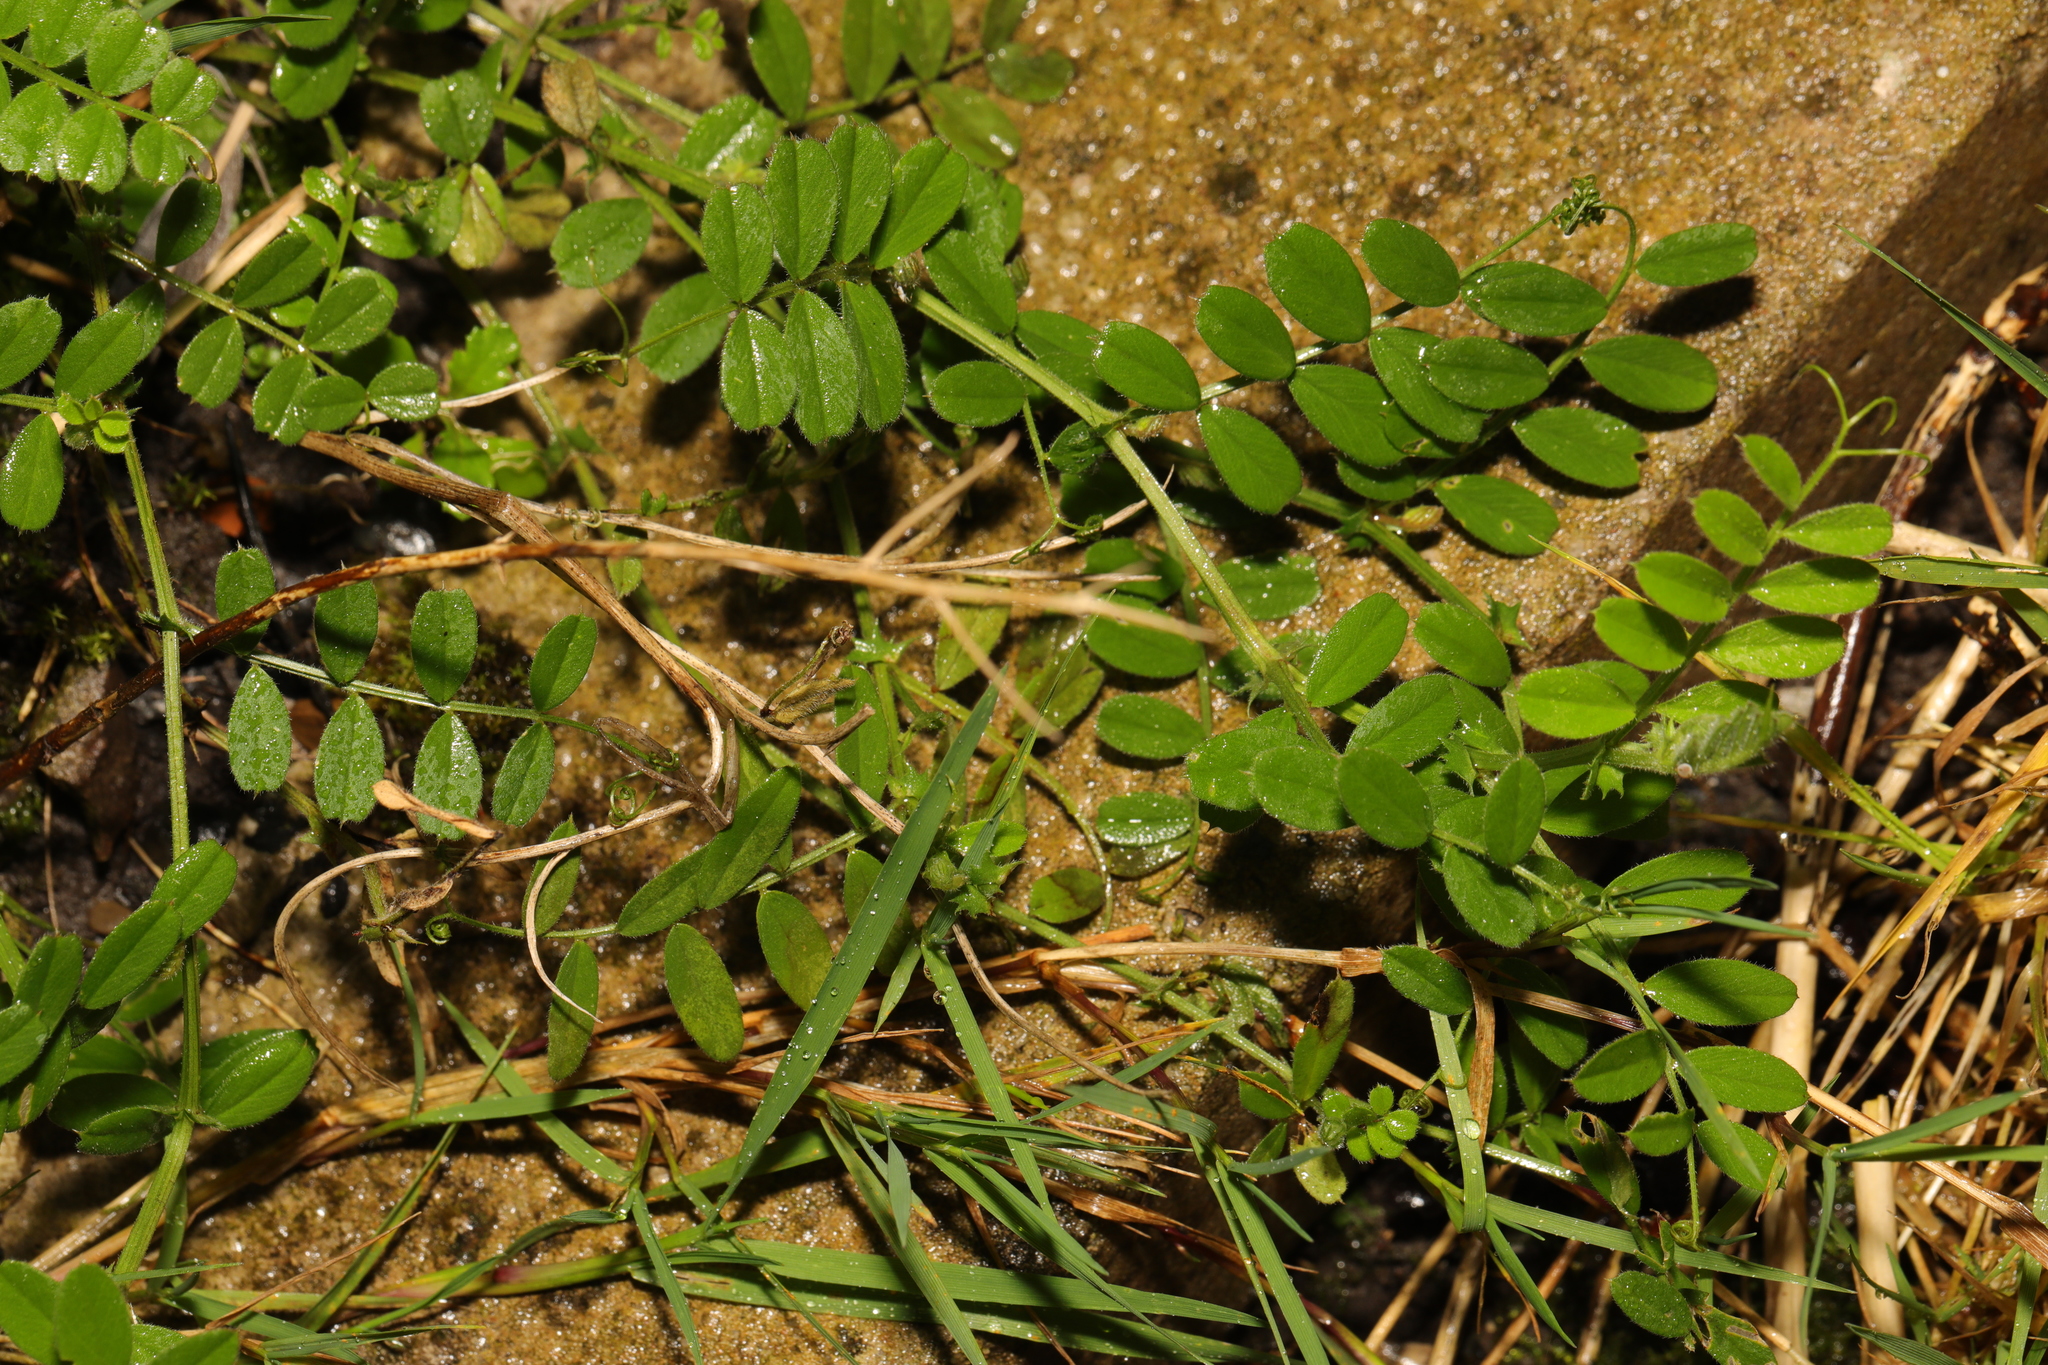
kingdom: Plantae
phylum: Tracheophyta
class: Magnoliopsida
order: Fabales
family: Fabaceae
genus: Vicia
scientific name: Vicia sativa
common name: Garden vetch
